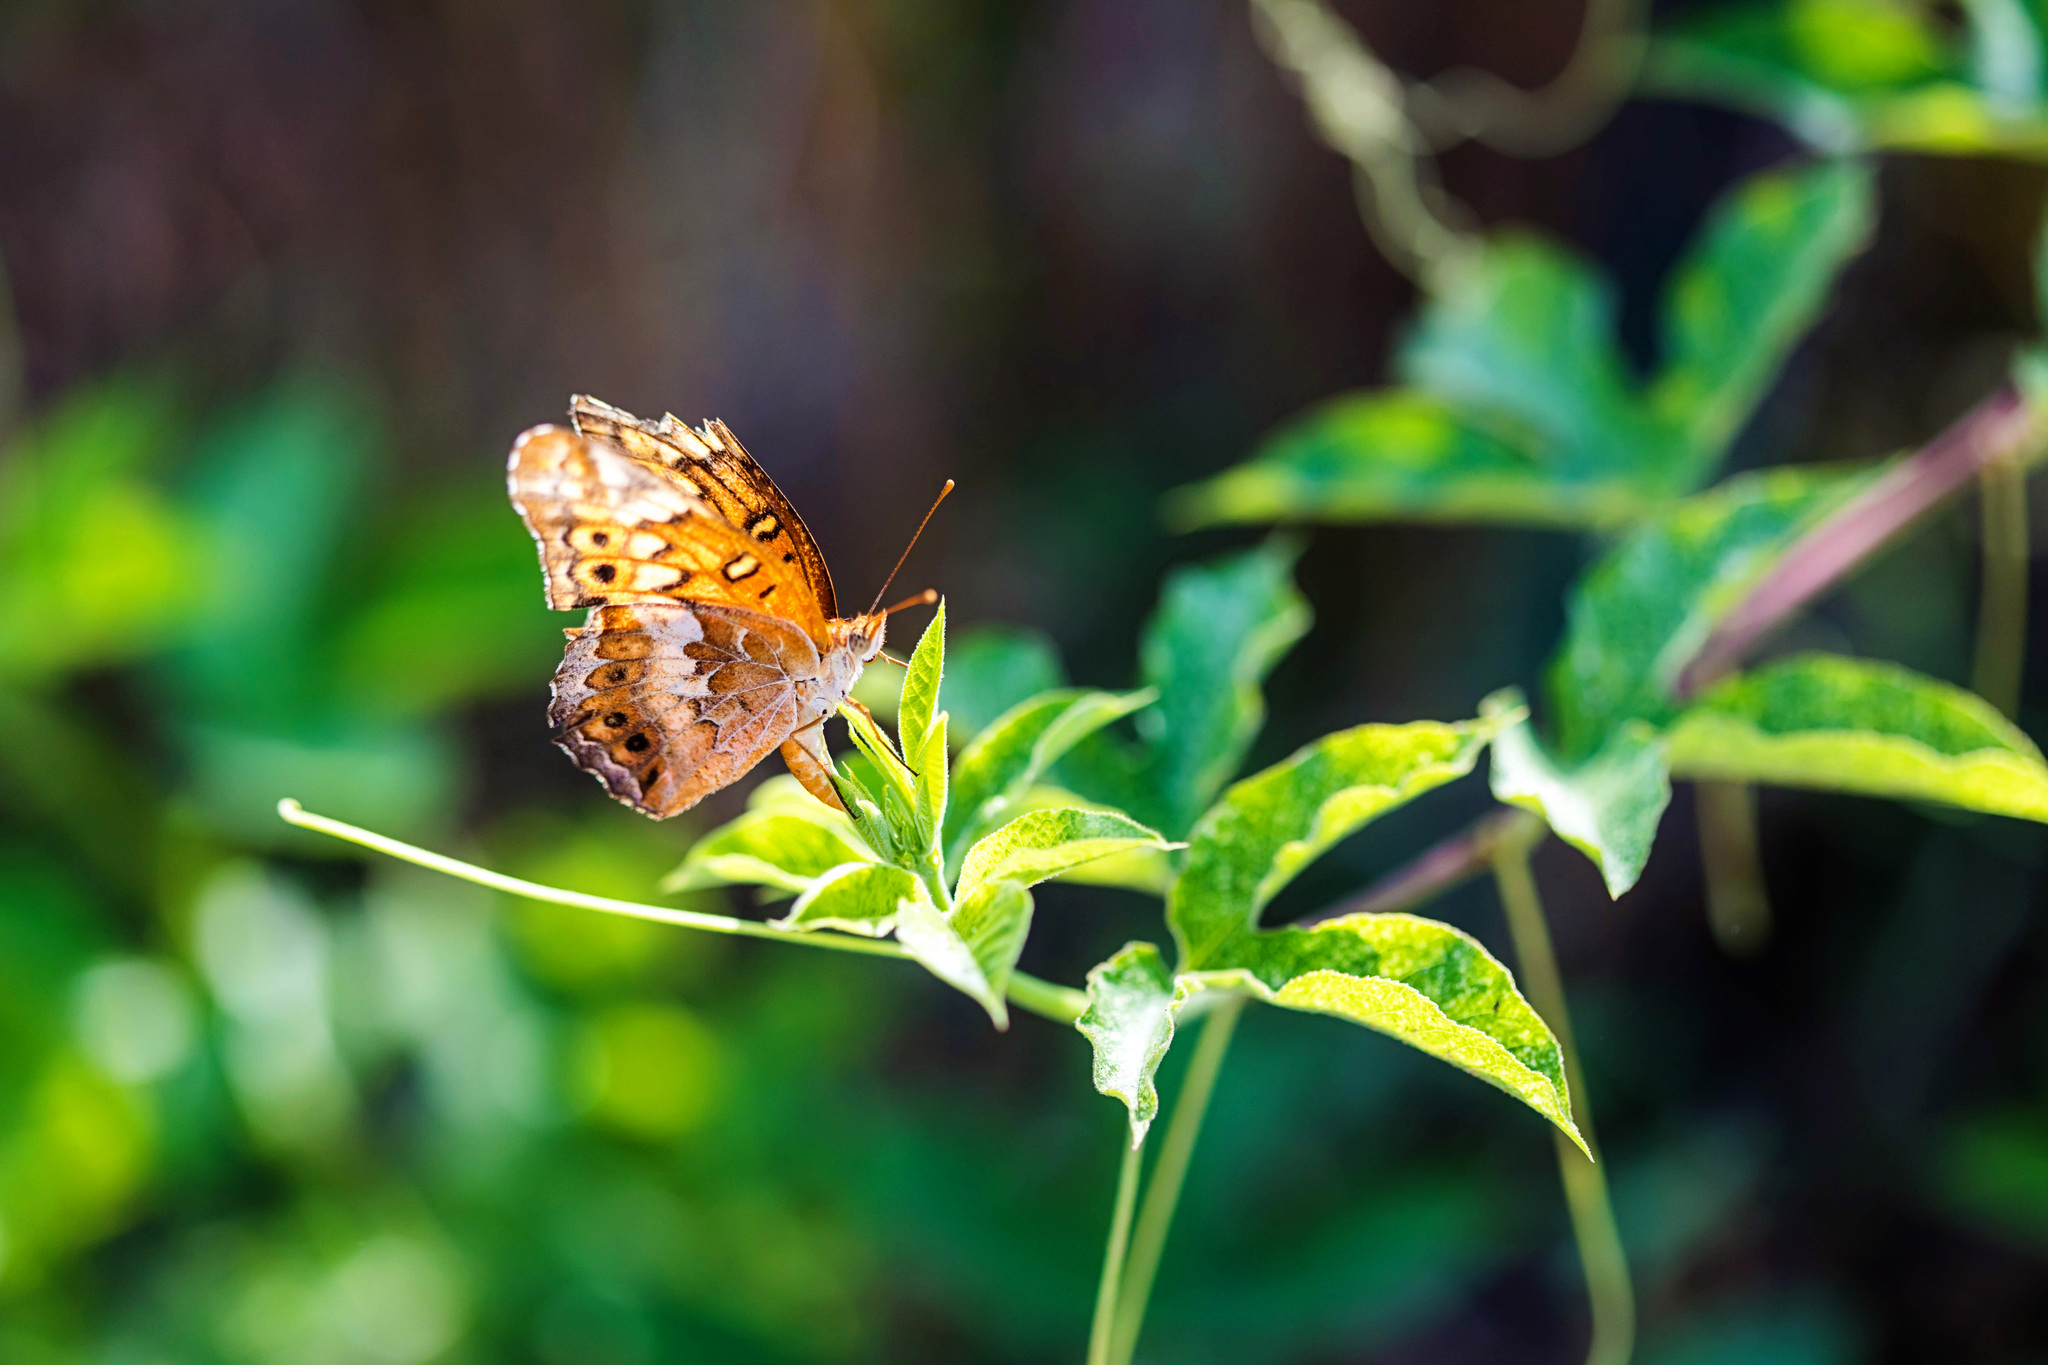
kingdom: Animalia
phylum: Arthropoda
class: Insecta
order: Lepidoptera
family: Nymphalidae
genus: Euptoieta
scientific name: Euptoieta claudia
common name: Variegated fritillary
